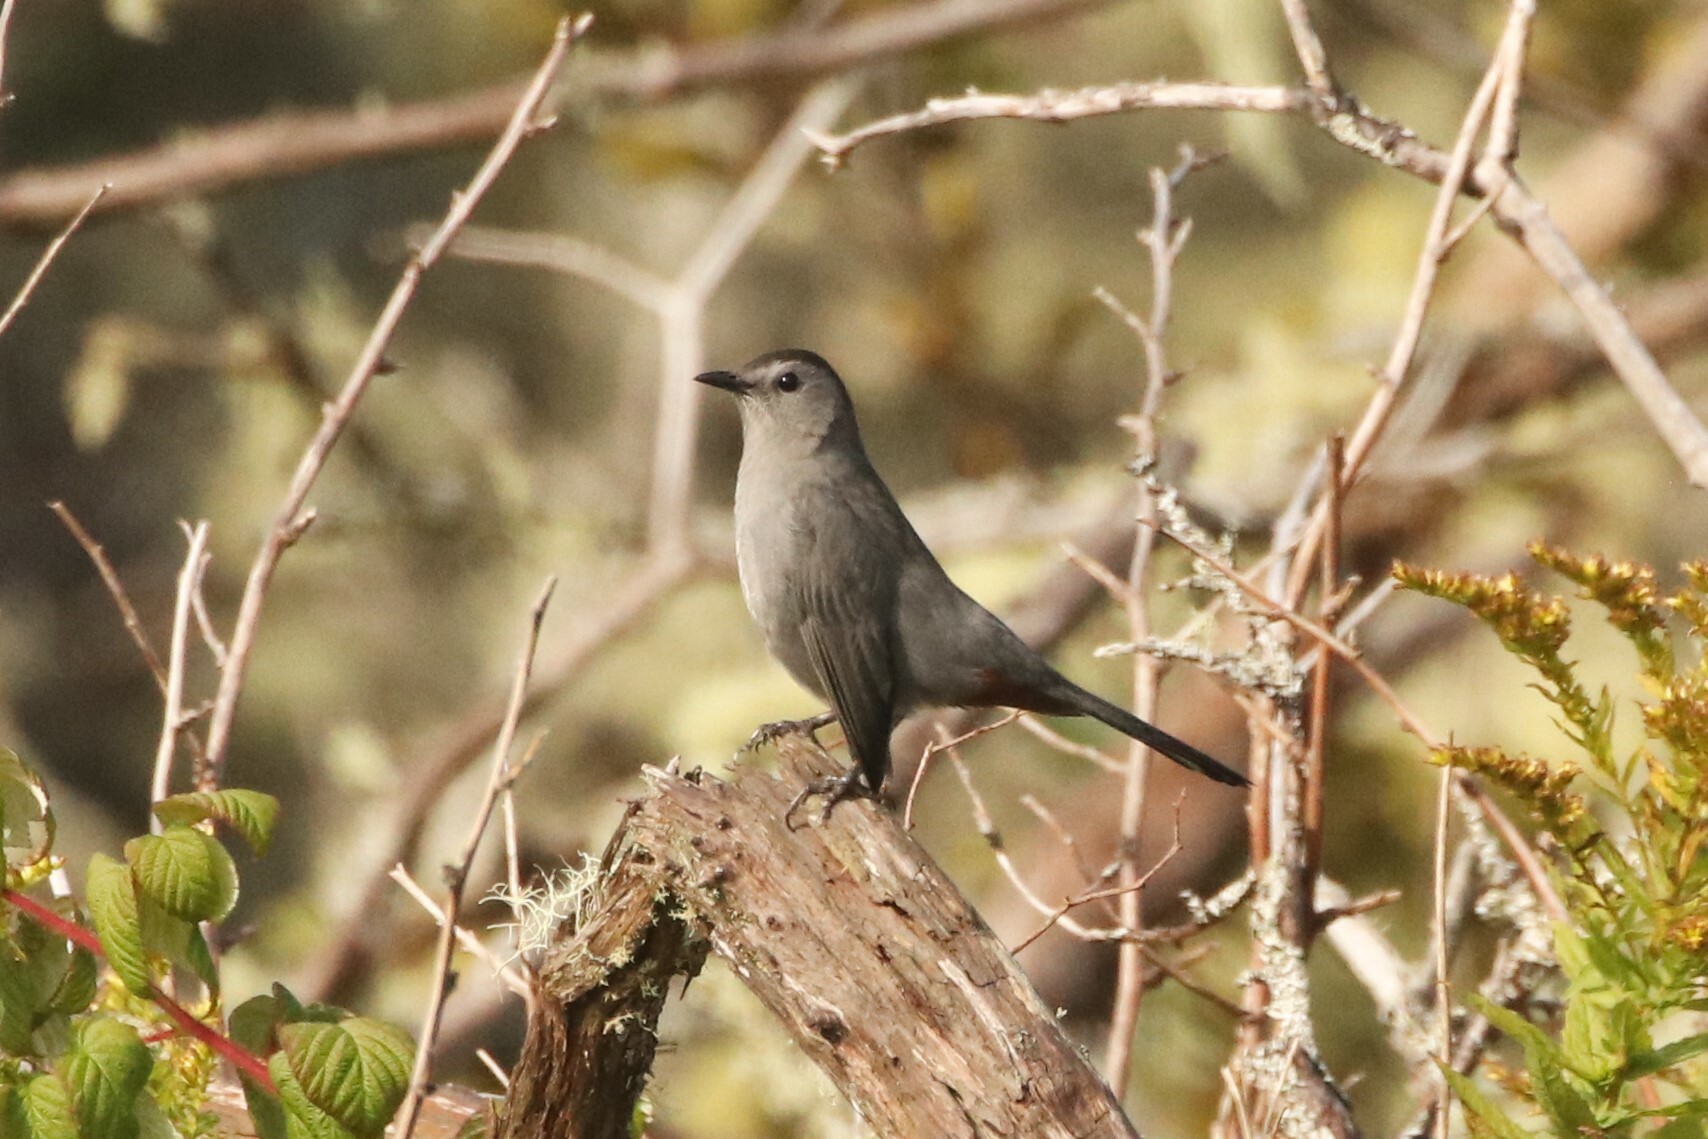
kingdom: Animalia
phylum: Chordata
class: Aves
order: Passeriformes
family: Mimidae
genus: Dumetella
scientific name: Dumetella carolinensis
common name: Gray catbird
